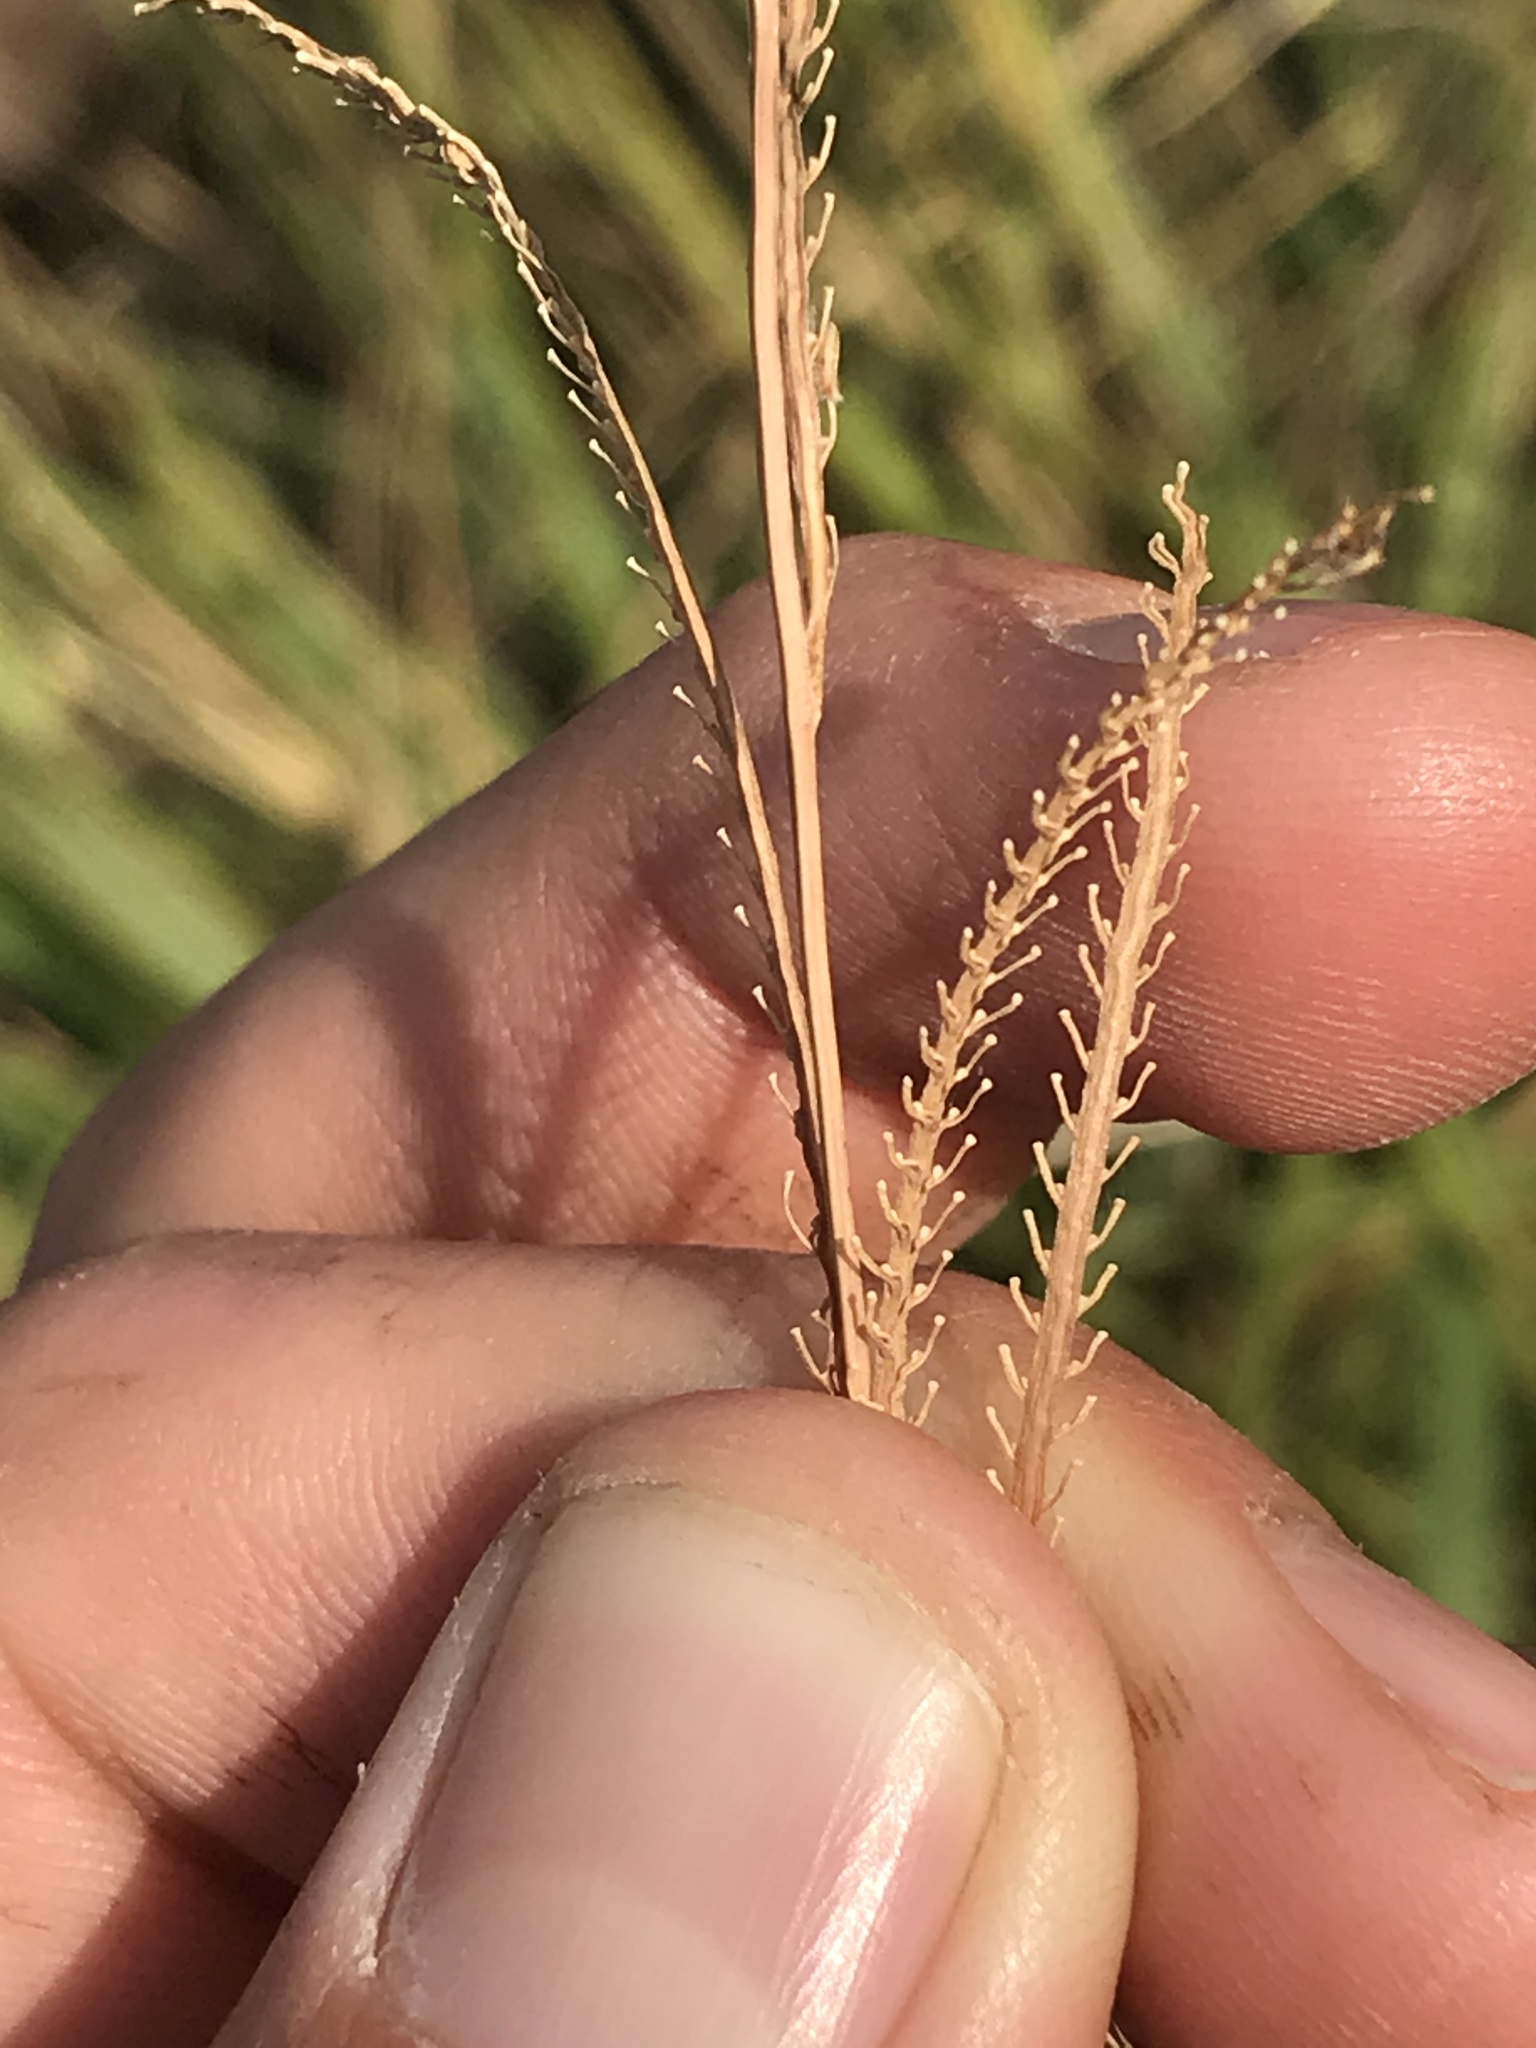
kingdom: Plantae
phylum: Tracheophyta
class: Liliopsida
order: Poales
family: Poaceae
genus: Paspalum
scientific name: Paspalum urvillei
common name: Vasey's grass
